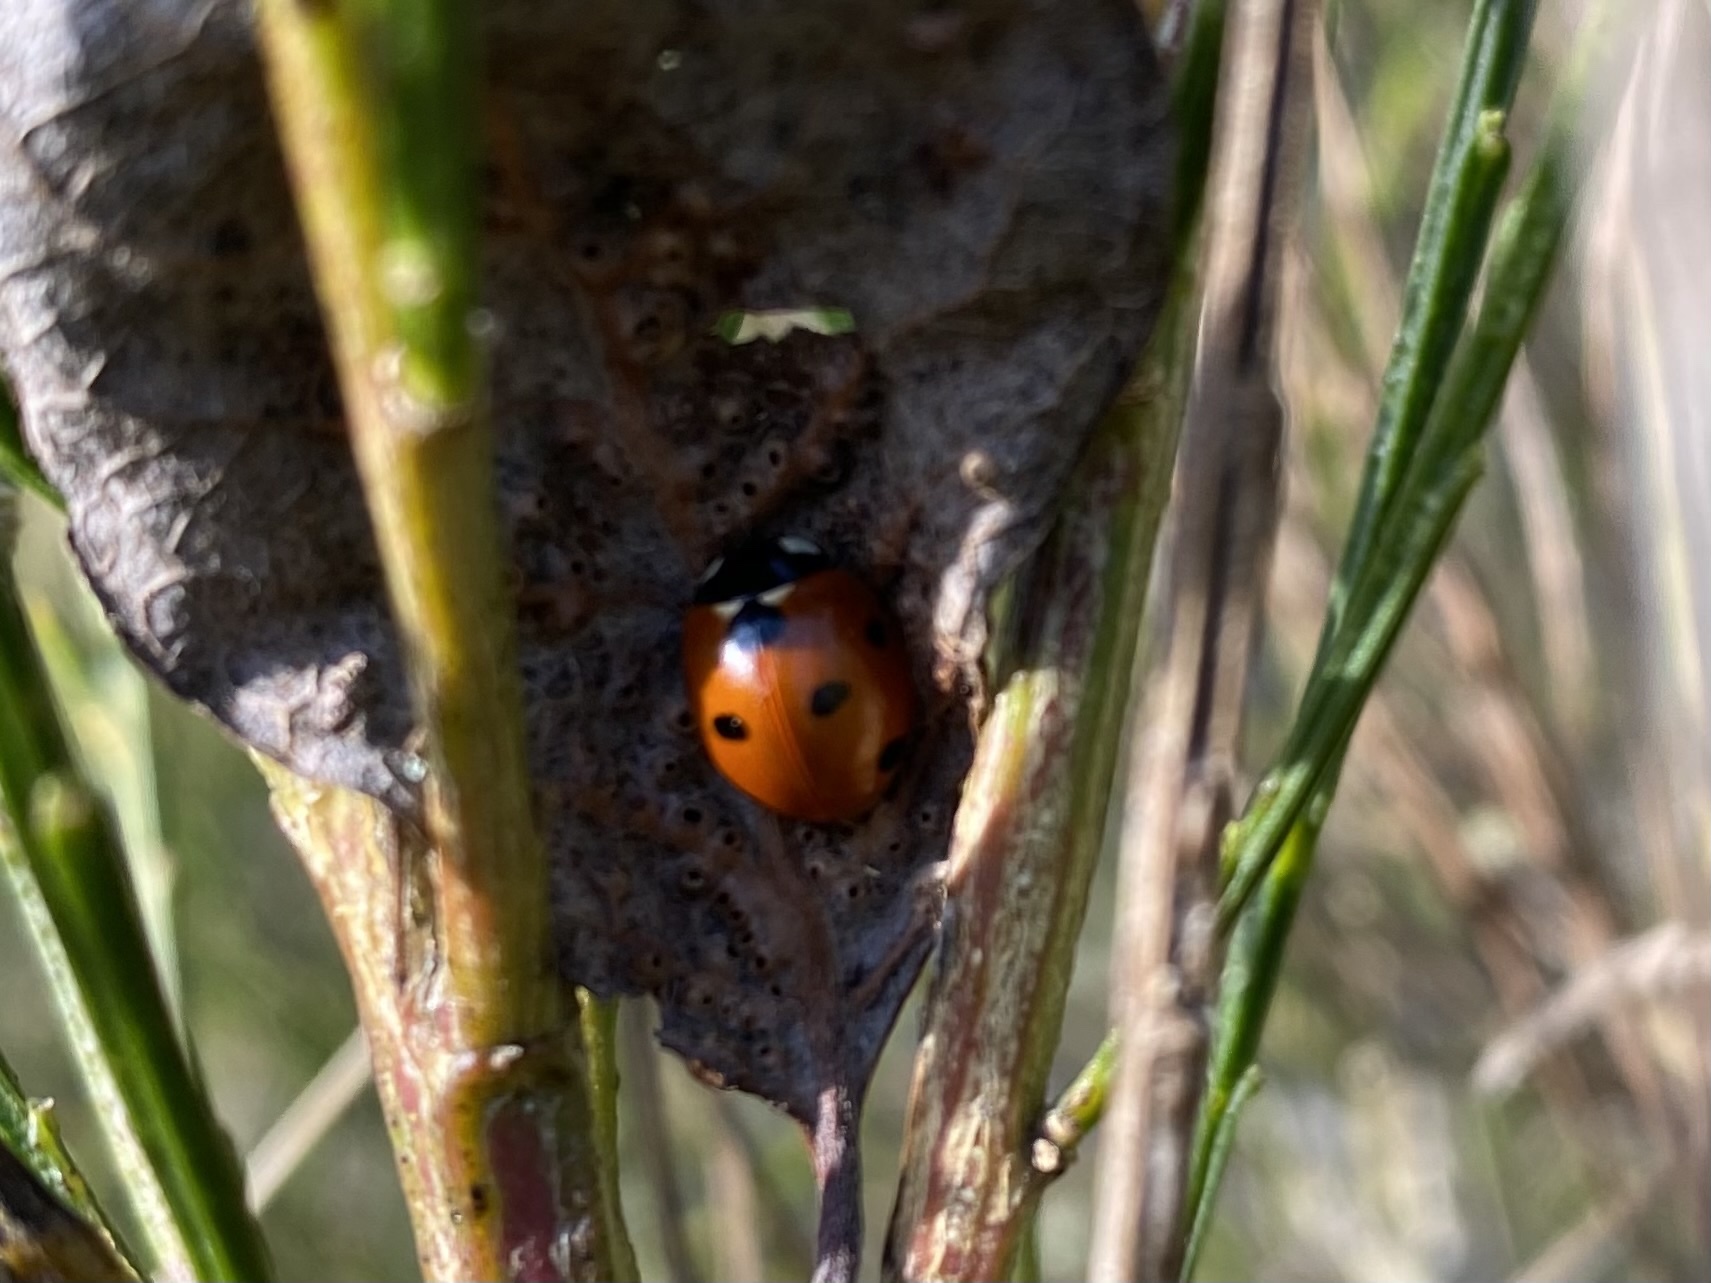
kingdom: Animalia
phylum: Arthropoda
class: Insecta
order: Coleoptera
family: Coccinellidae
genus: Coccinella
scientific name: Coccinella septempunctata
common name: Sevenspotted lady beetle
